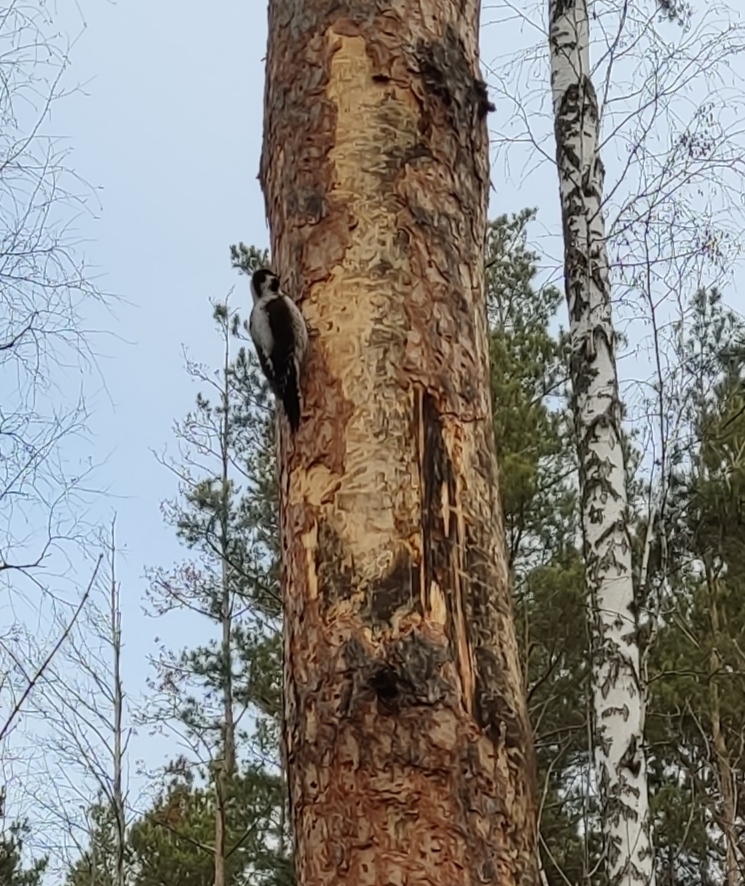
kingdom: Animalia
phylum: Chordata
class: Aves
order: Piciformes
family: Picidae
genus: Picoides
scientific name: Picoides tridactylus
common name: Eurasian three-toed woodpecker
